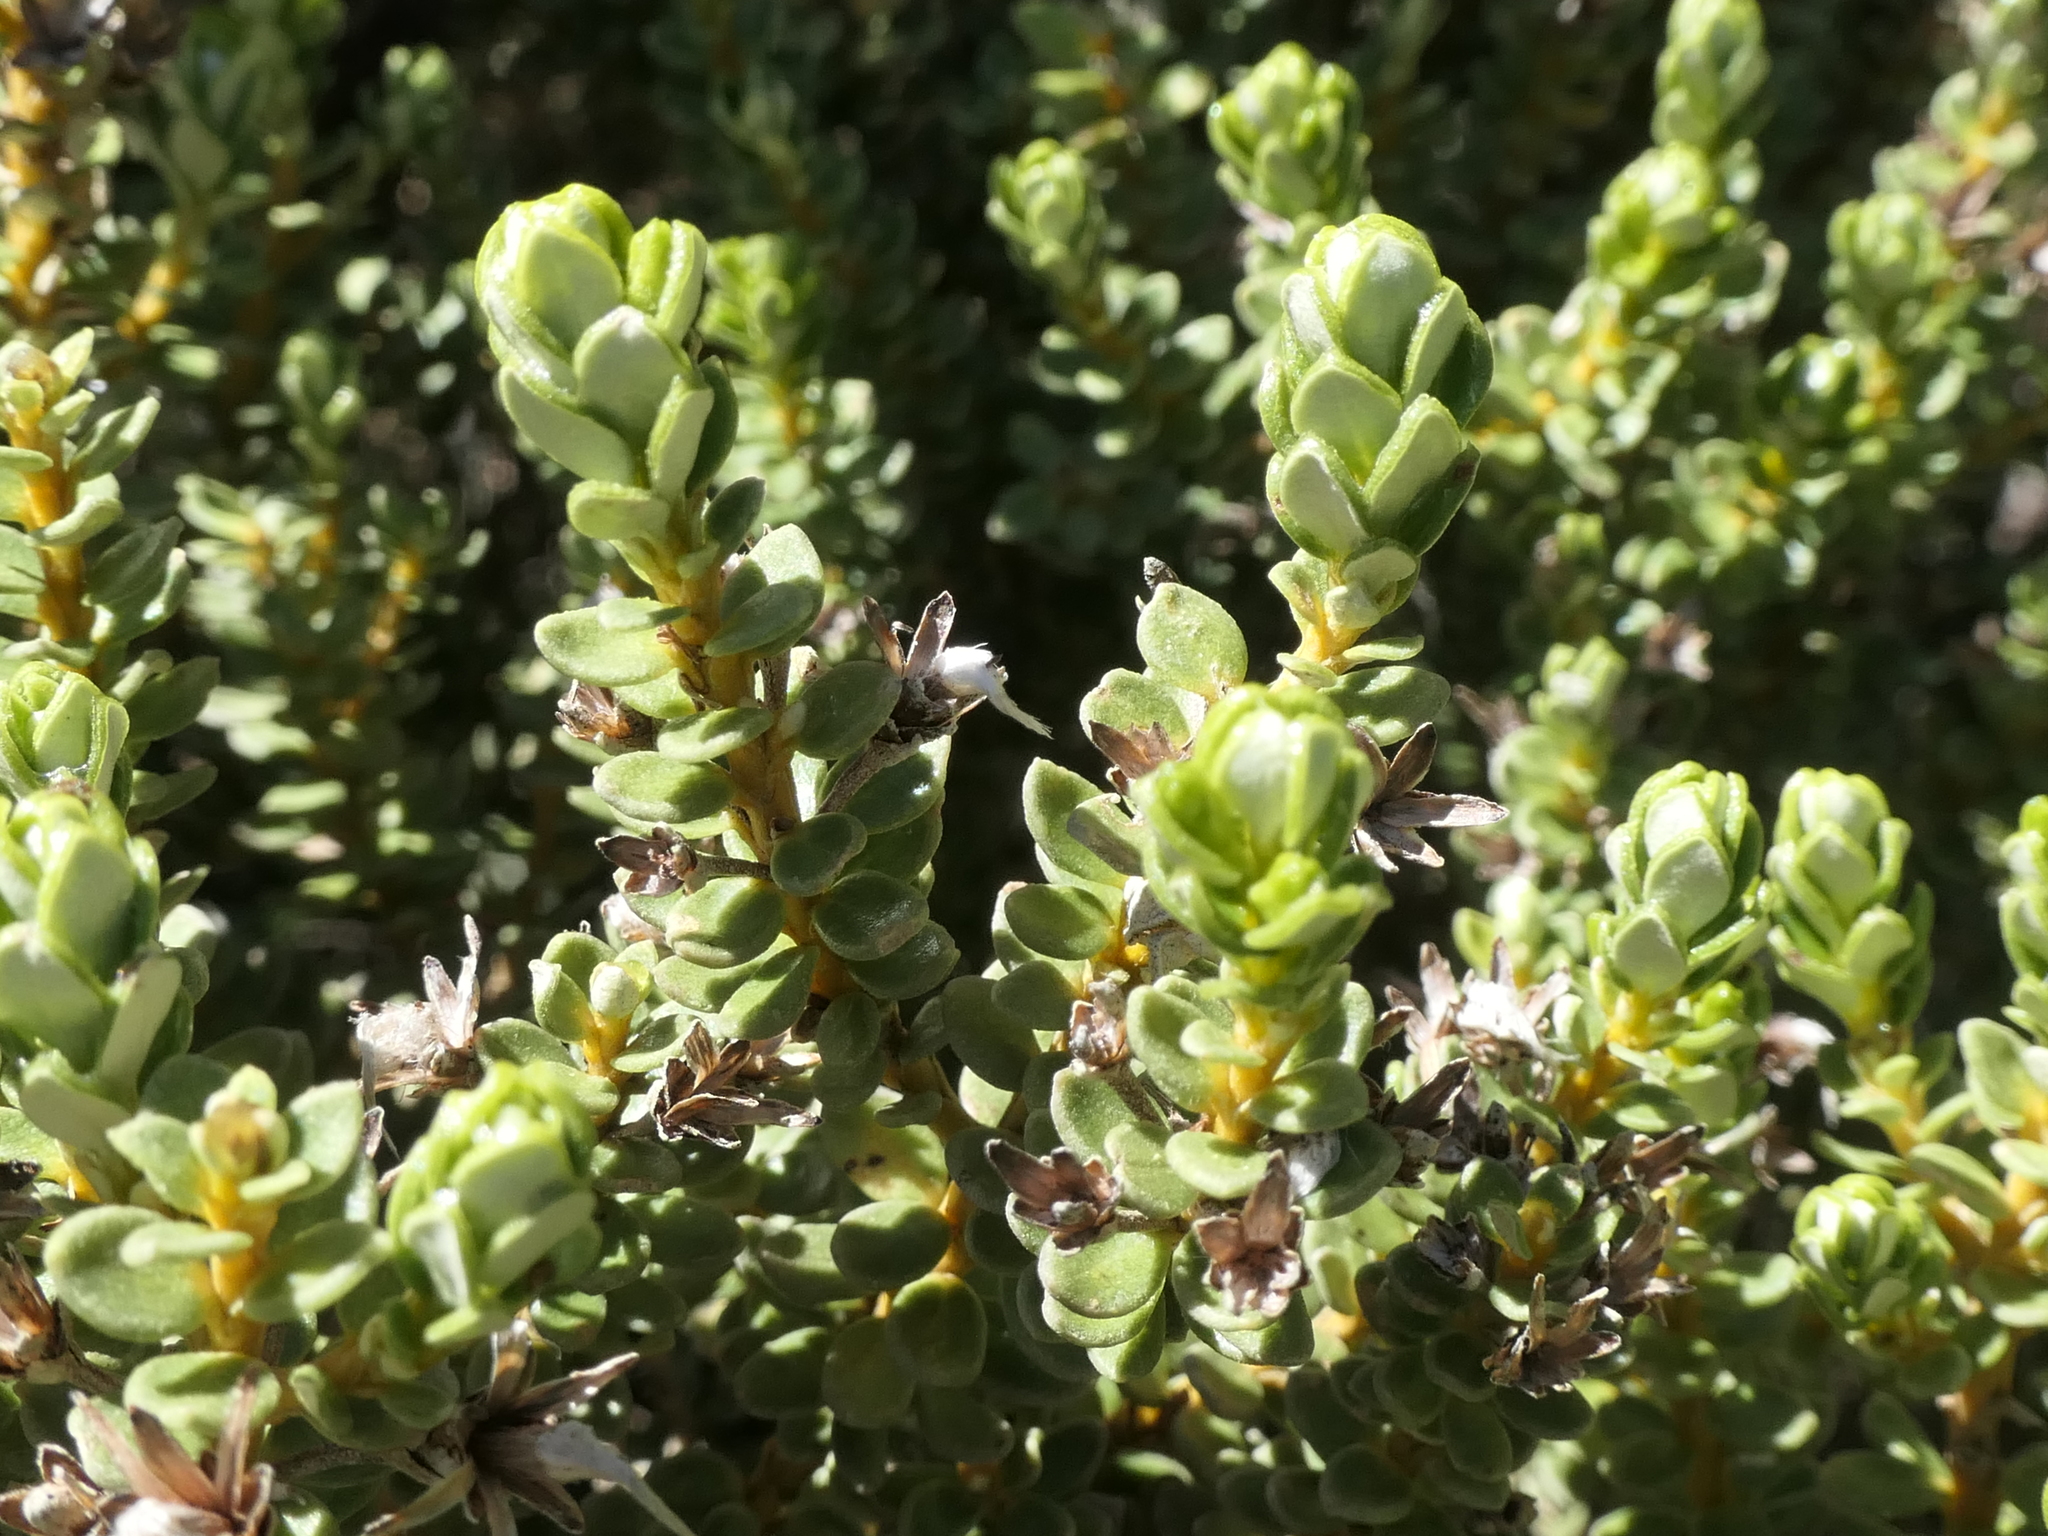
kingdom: Plantae
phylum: Tracheophyta
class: Magnoliopsida
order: Asterales
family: Asteraceae
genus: Olearia
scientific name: Olearia nummularifolia
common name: Sticky daisybush
